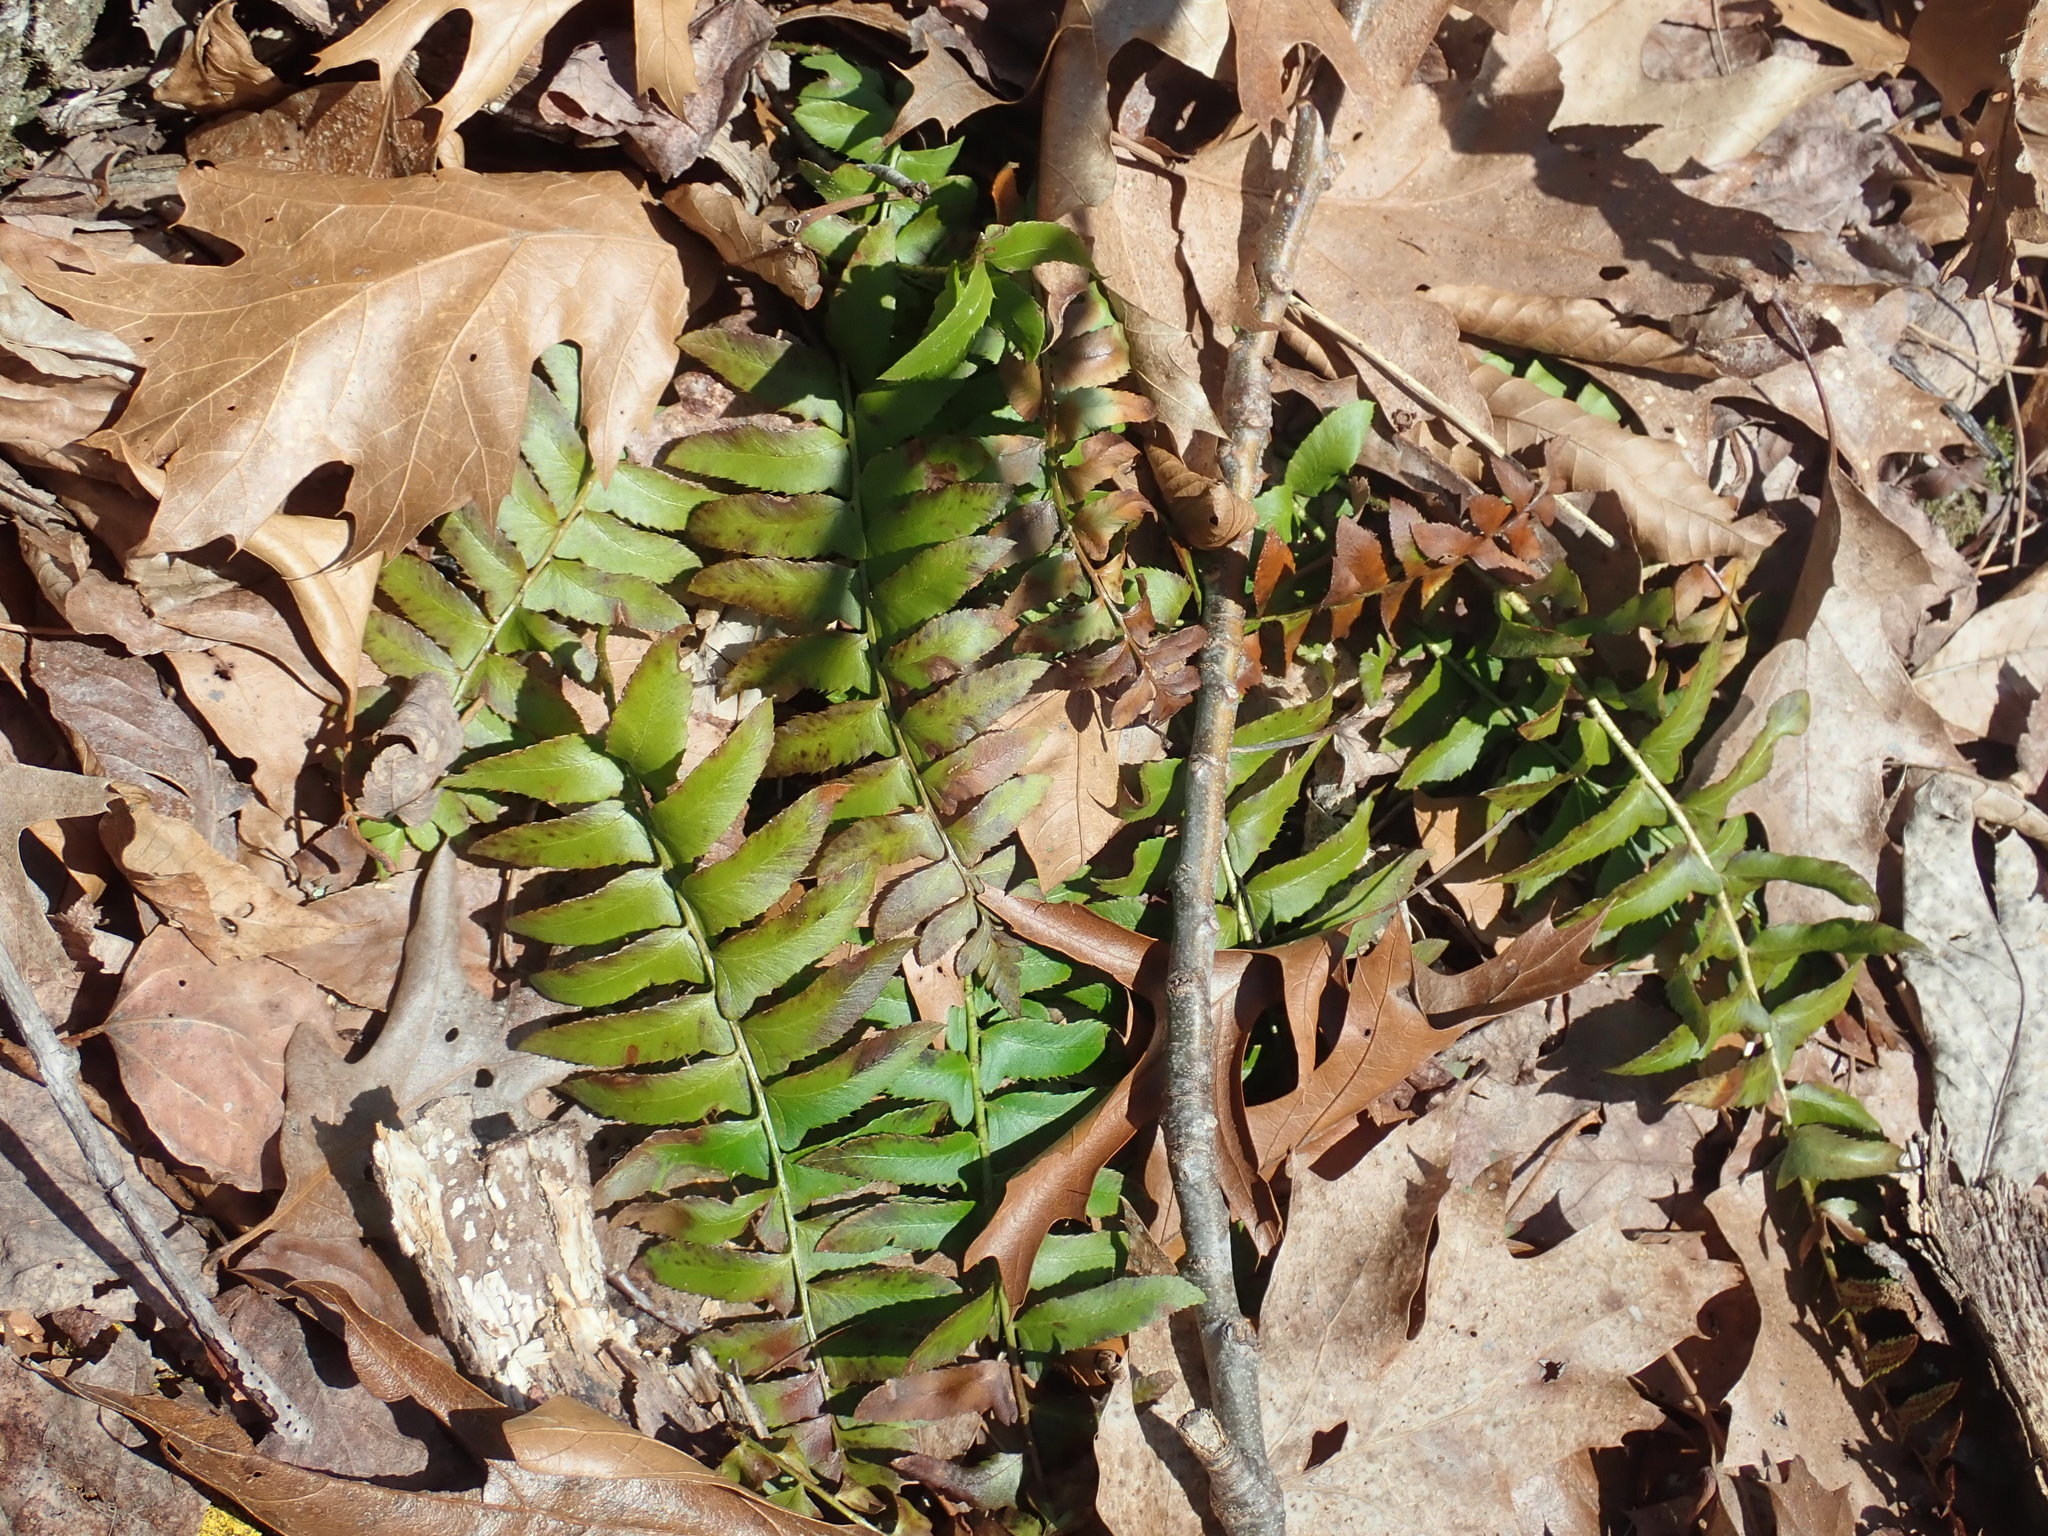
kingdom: Plantae
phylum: Tracheophyta
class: Polypodiopsida
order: Polypodiales
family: Dryopteridaceae
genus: Polystichum
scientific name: Polystichum acrostichoides
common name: Christmas fern
